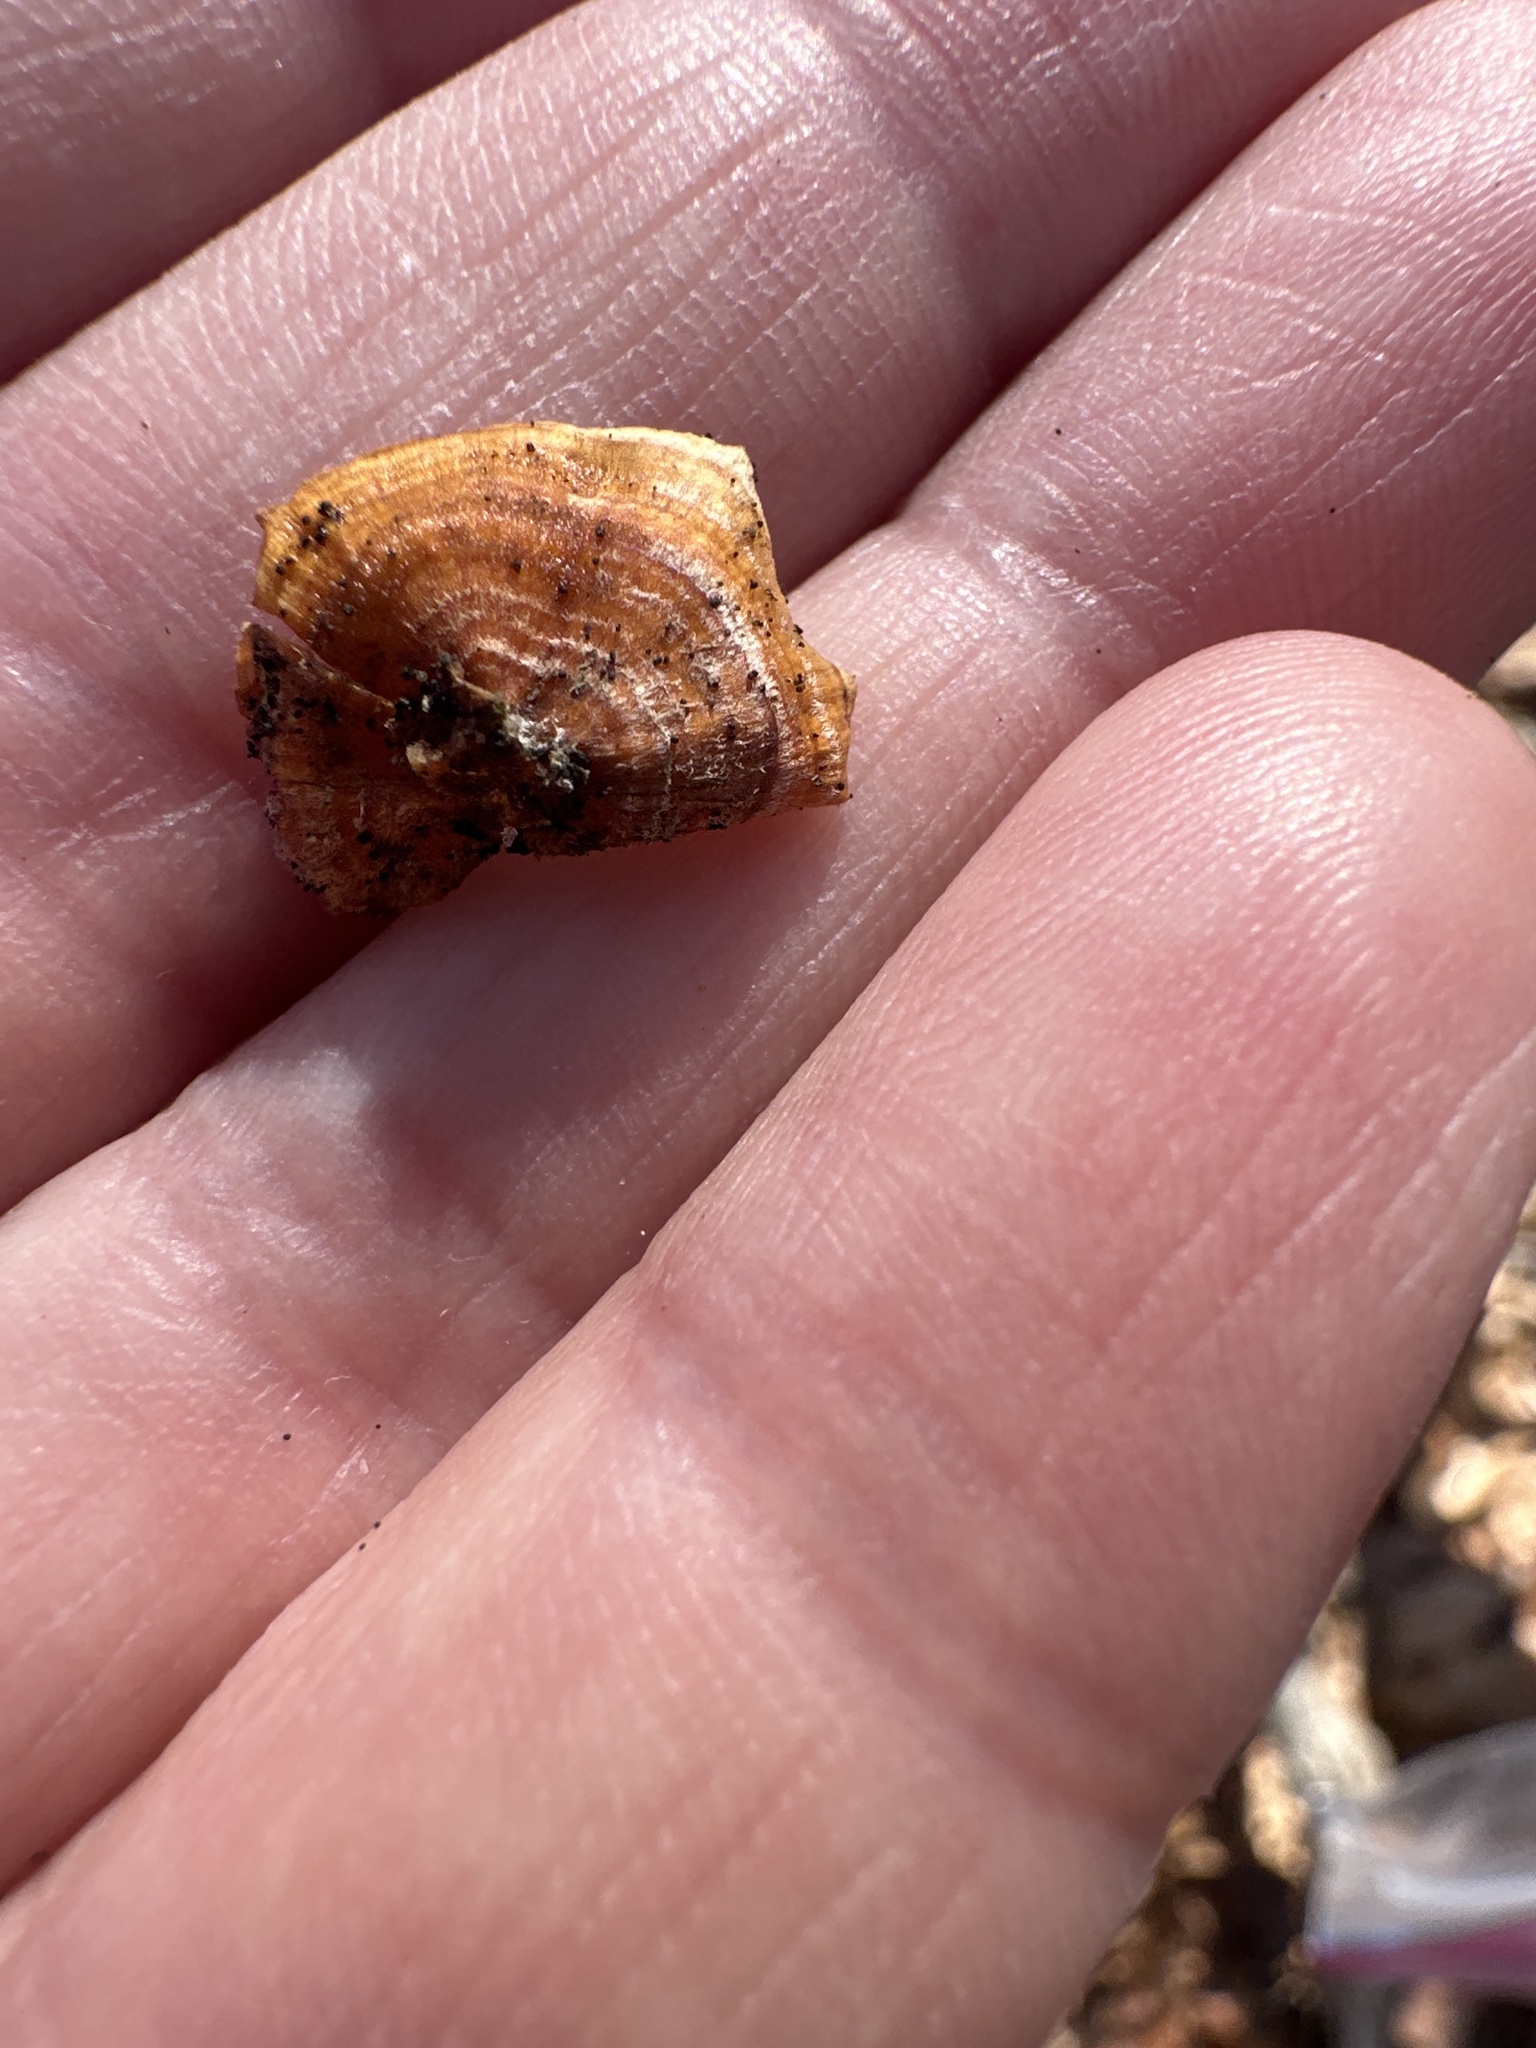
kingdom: Fungi
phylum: Basidiomycota
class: Agaricomycetes
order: Russulales
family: Stereaceae
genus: Stereum
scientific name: Stereum complicatum
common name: Crowded parchment
